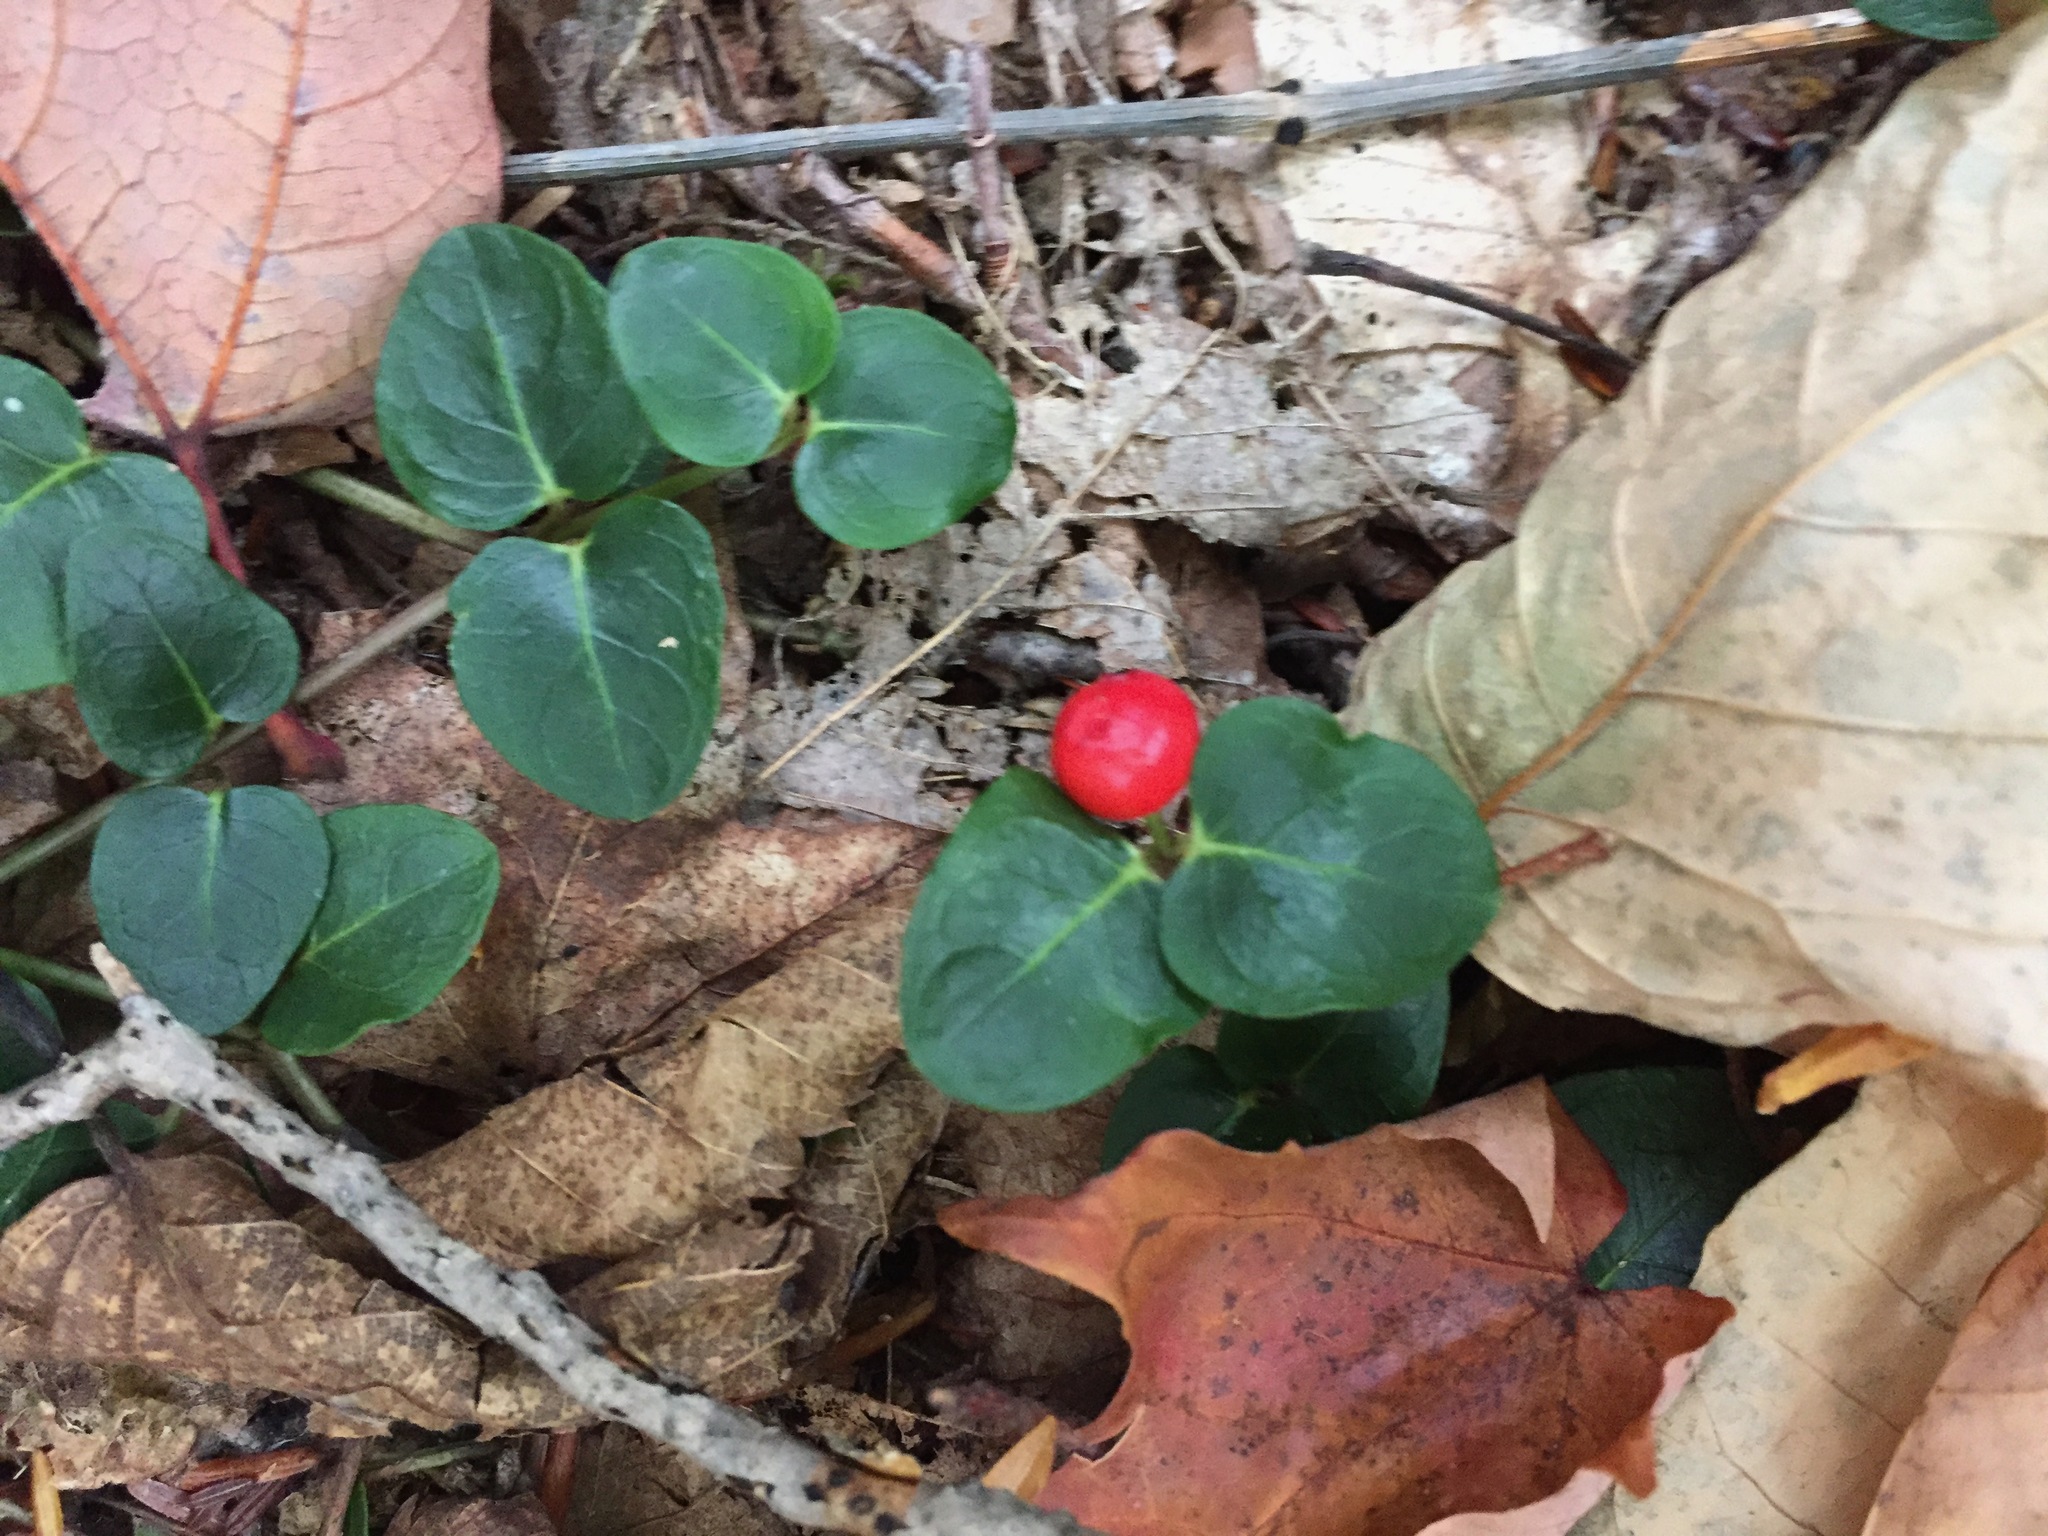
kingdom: Plantae
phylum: Tracheophyta
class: Magnoliopsida
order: Gentianales
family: Rubiaceae
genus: Mitchella
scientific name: Mitchella repens
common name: Partridge-berry
